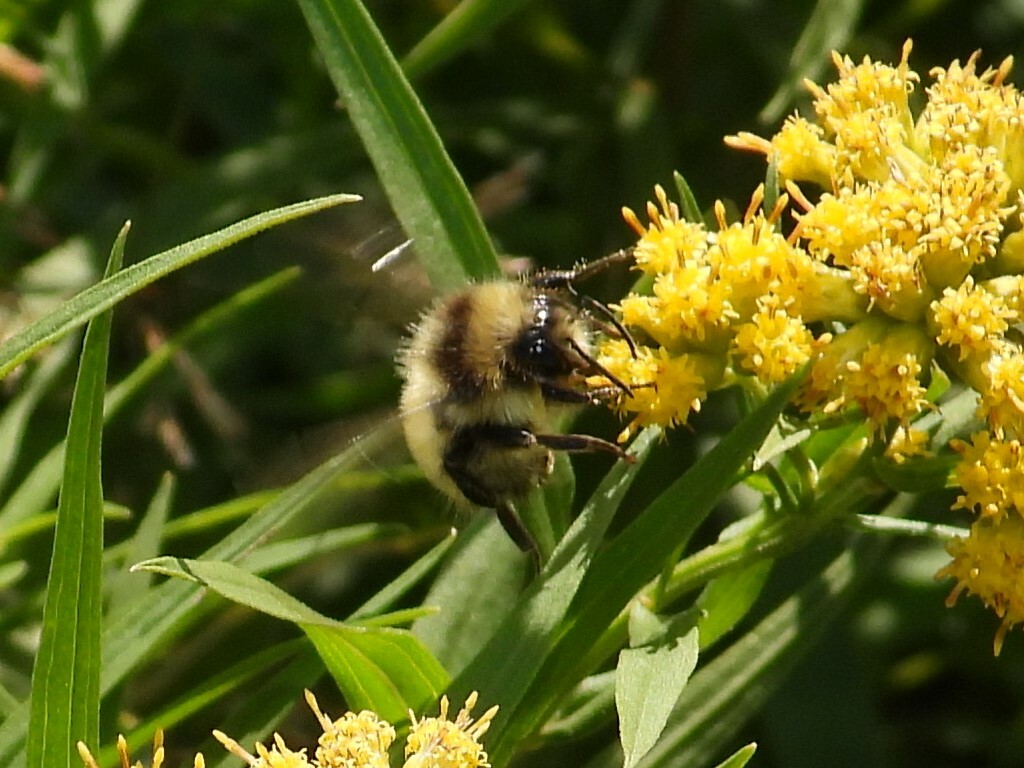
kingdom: Animalia
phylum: Arthropoda
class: Insecta
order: Hymenoptera
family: Apidae
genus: Bombus
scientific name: Bombus ternarius
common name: Tri-colored bumble bee
